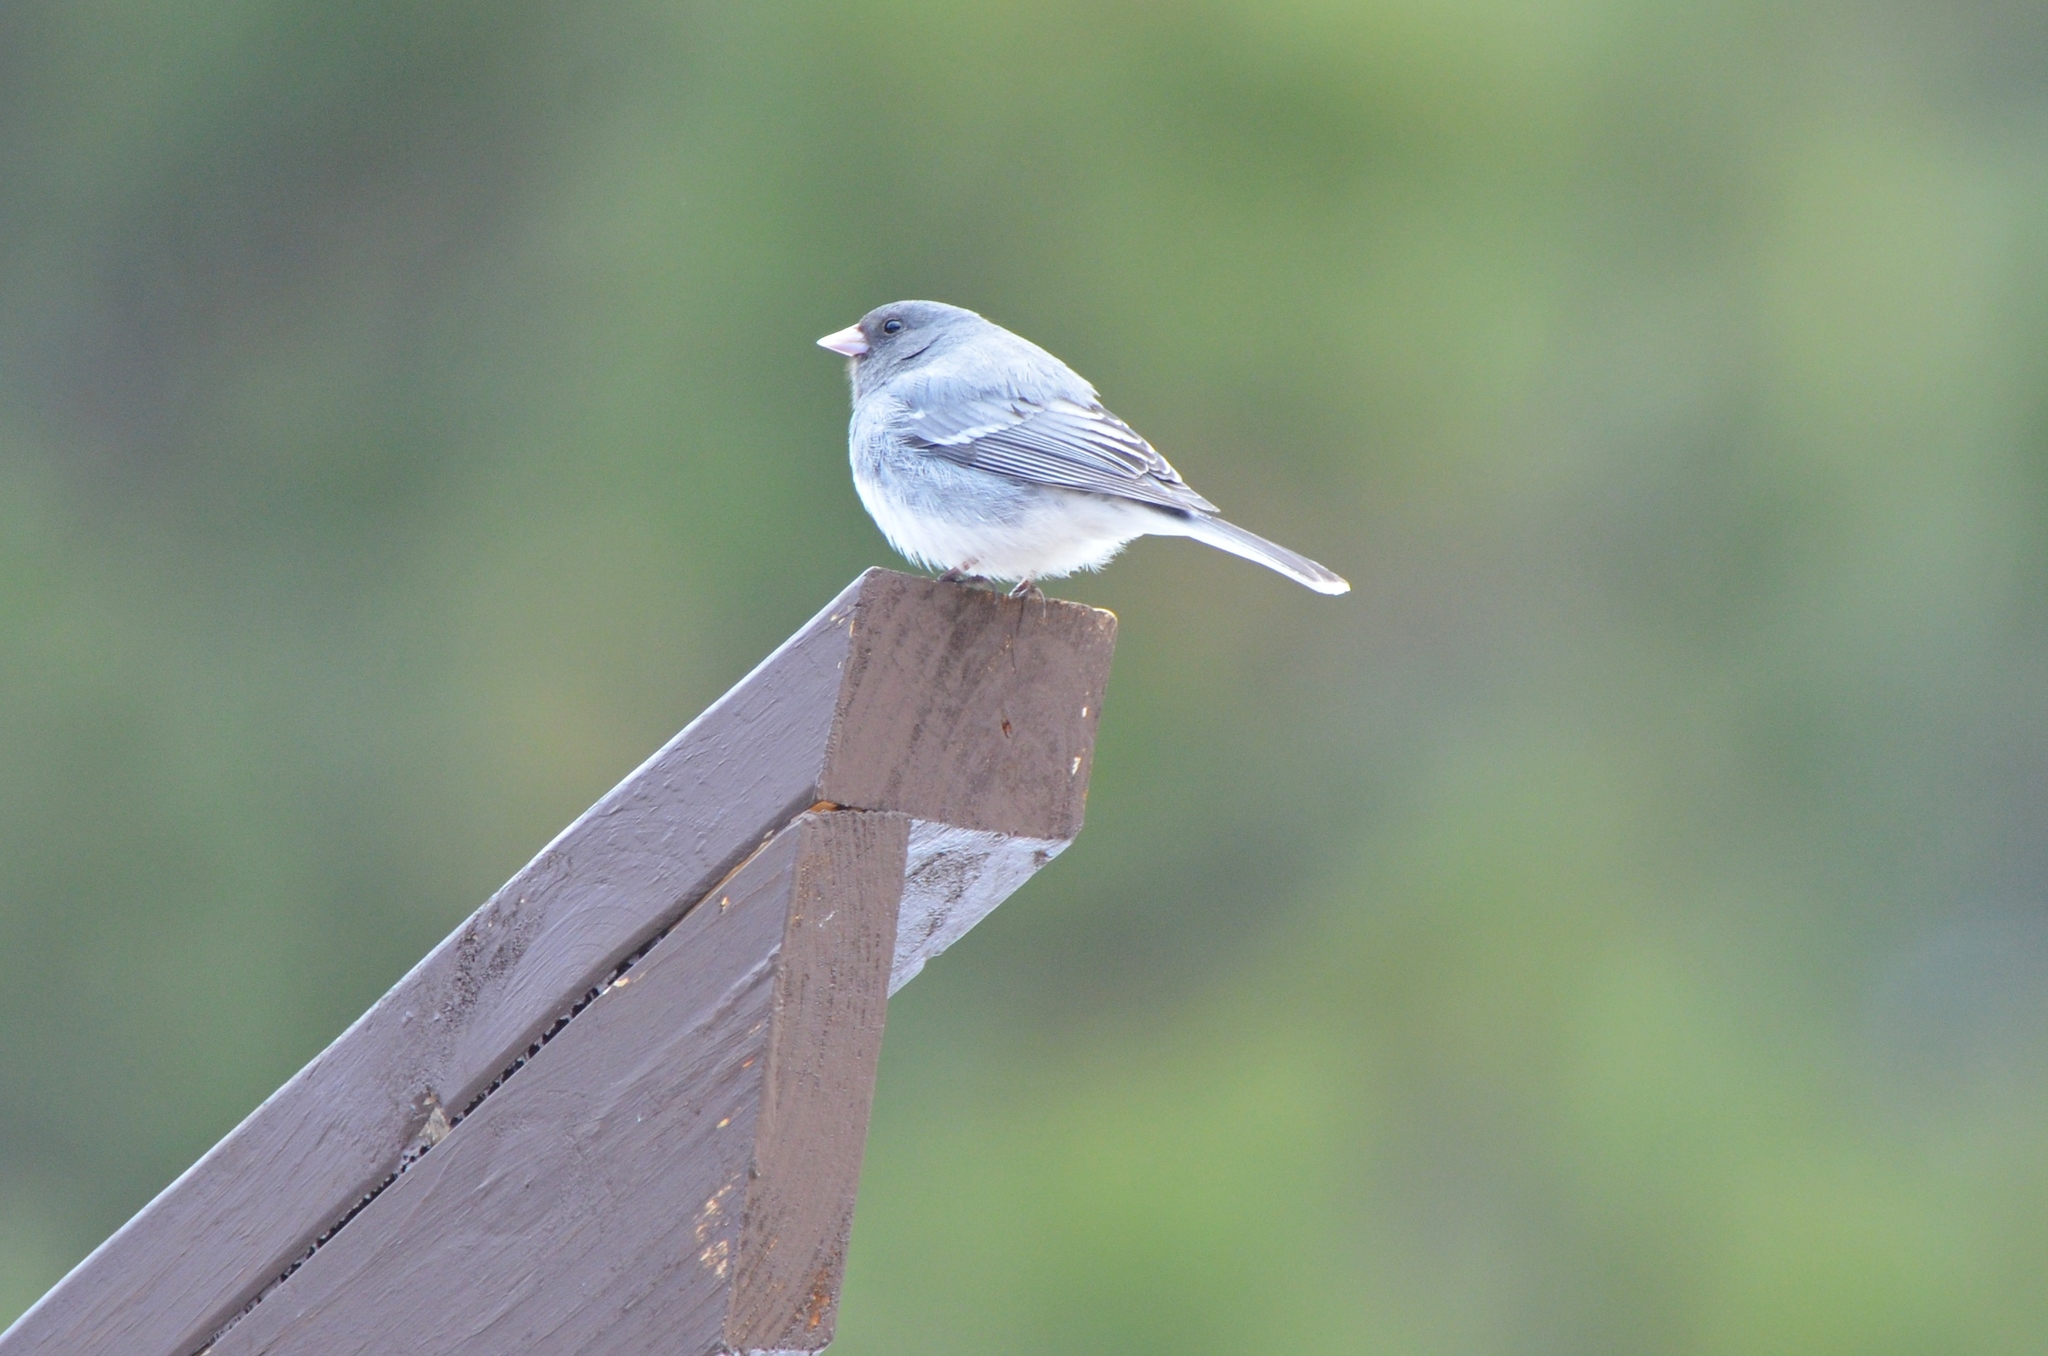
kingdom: Animalia
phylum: Chordata
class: Aves
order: Passeriformes
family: Passerellidae
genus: Junco
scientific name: Junco hyemalis
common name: Dark-eyed junco
